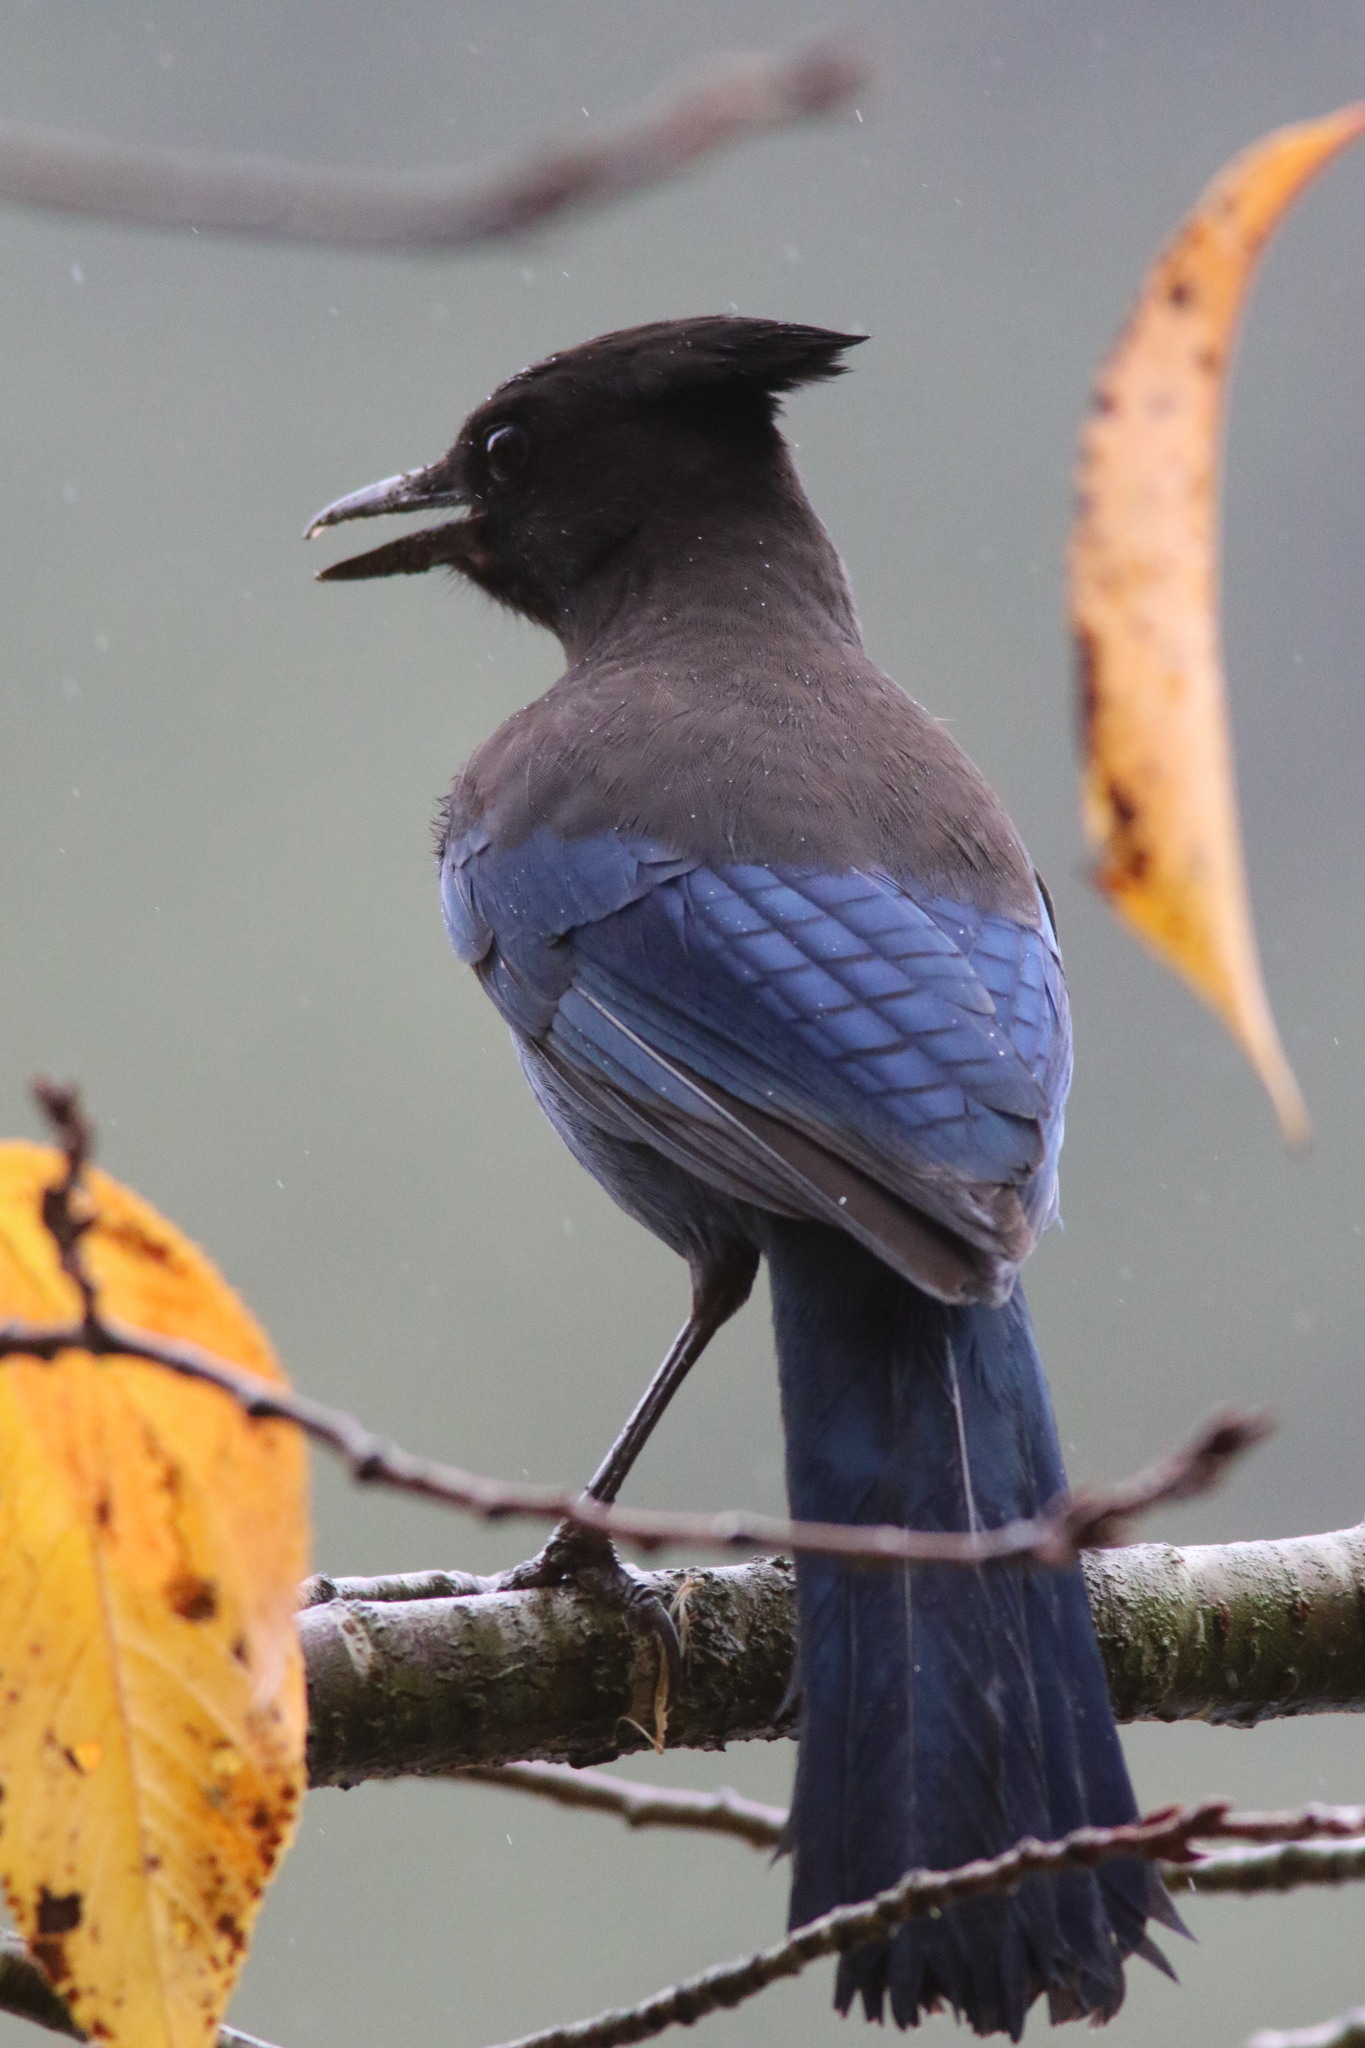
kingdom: Animalia
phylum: Chordata
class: Aves
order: Passeriformes
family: Corvidae
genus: Cyanocitta
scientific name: Cyanocitta stelleri
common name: Steller's jay
